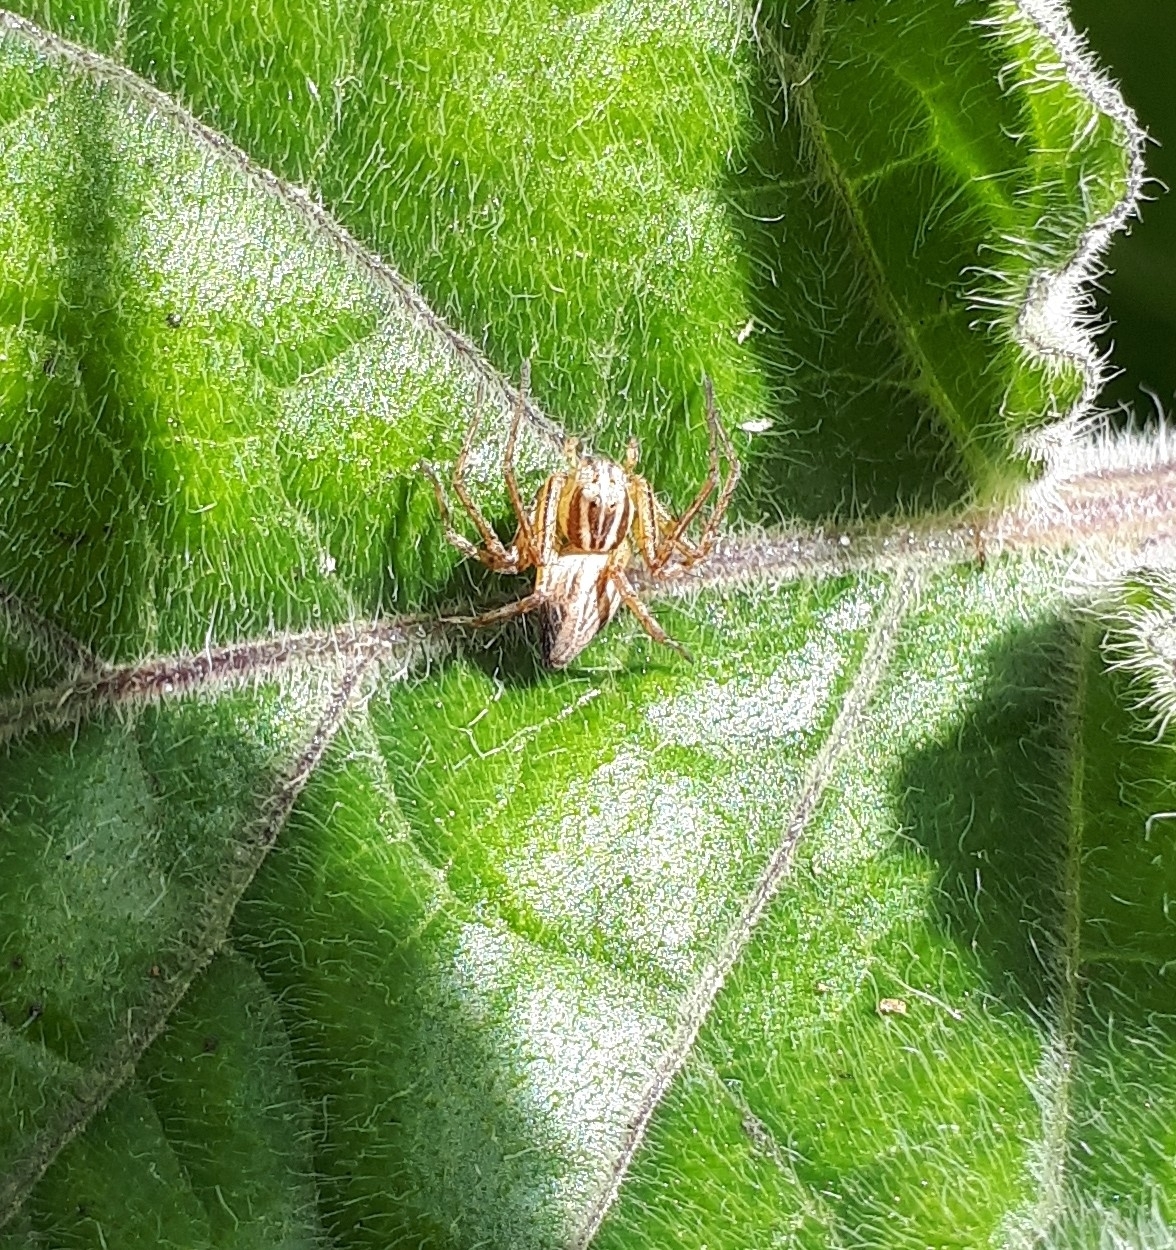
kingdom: Animalia
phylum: Arthropoda
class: Arachnida
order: Araneae
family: Oxyopidae
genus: Oxyopes
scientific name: Oxyopes gracilipes
